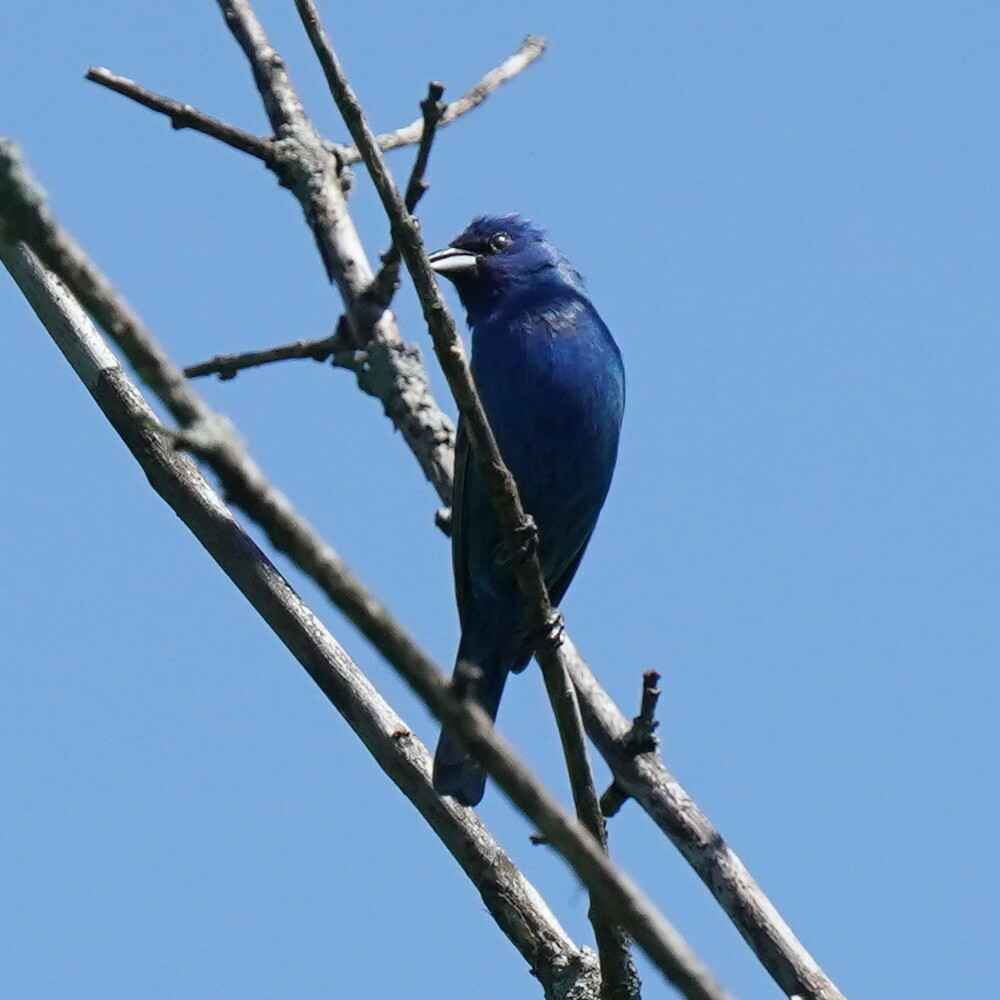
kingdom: Animalia
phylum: Chordata
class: Aves
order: Passeriformes
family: Cardinalidae
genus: Passerina
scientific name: Passerina cyanea
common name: Indigo bunting
